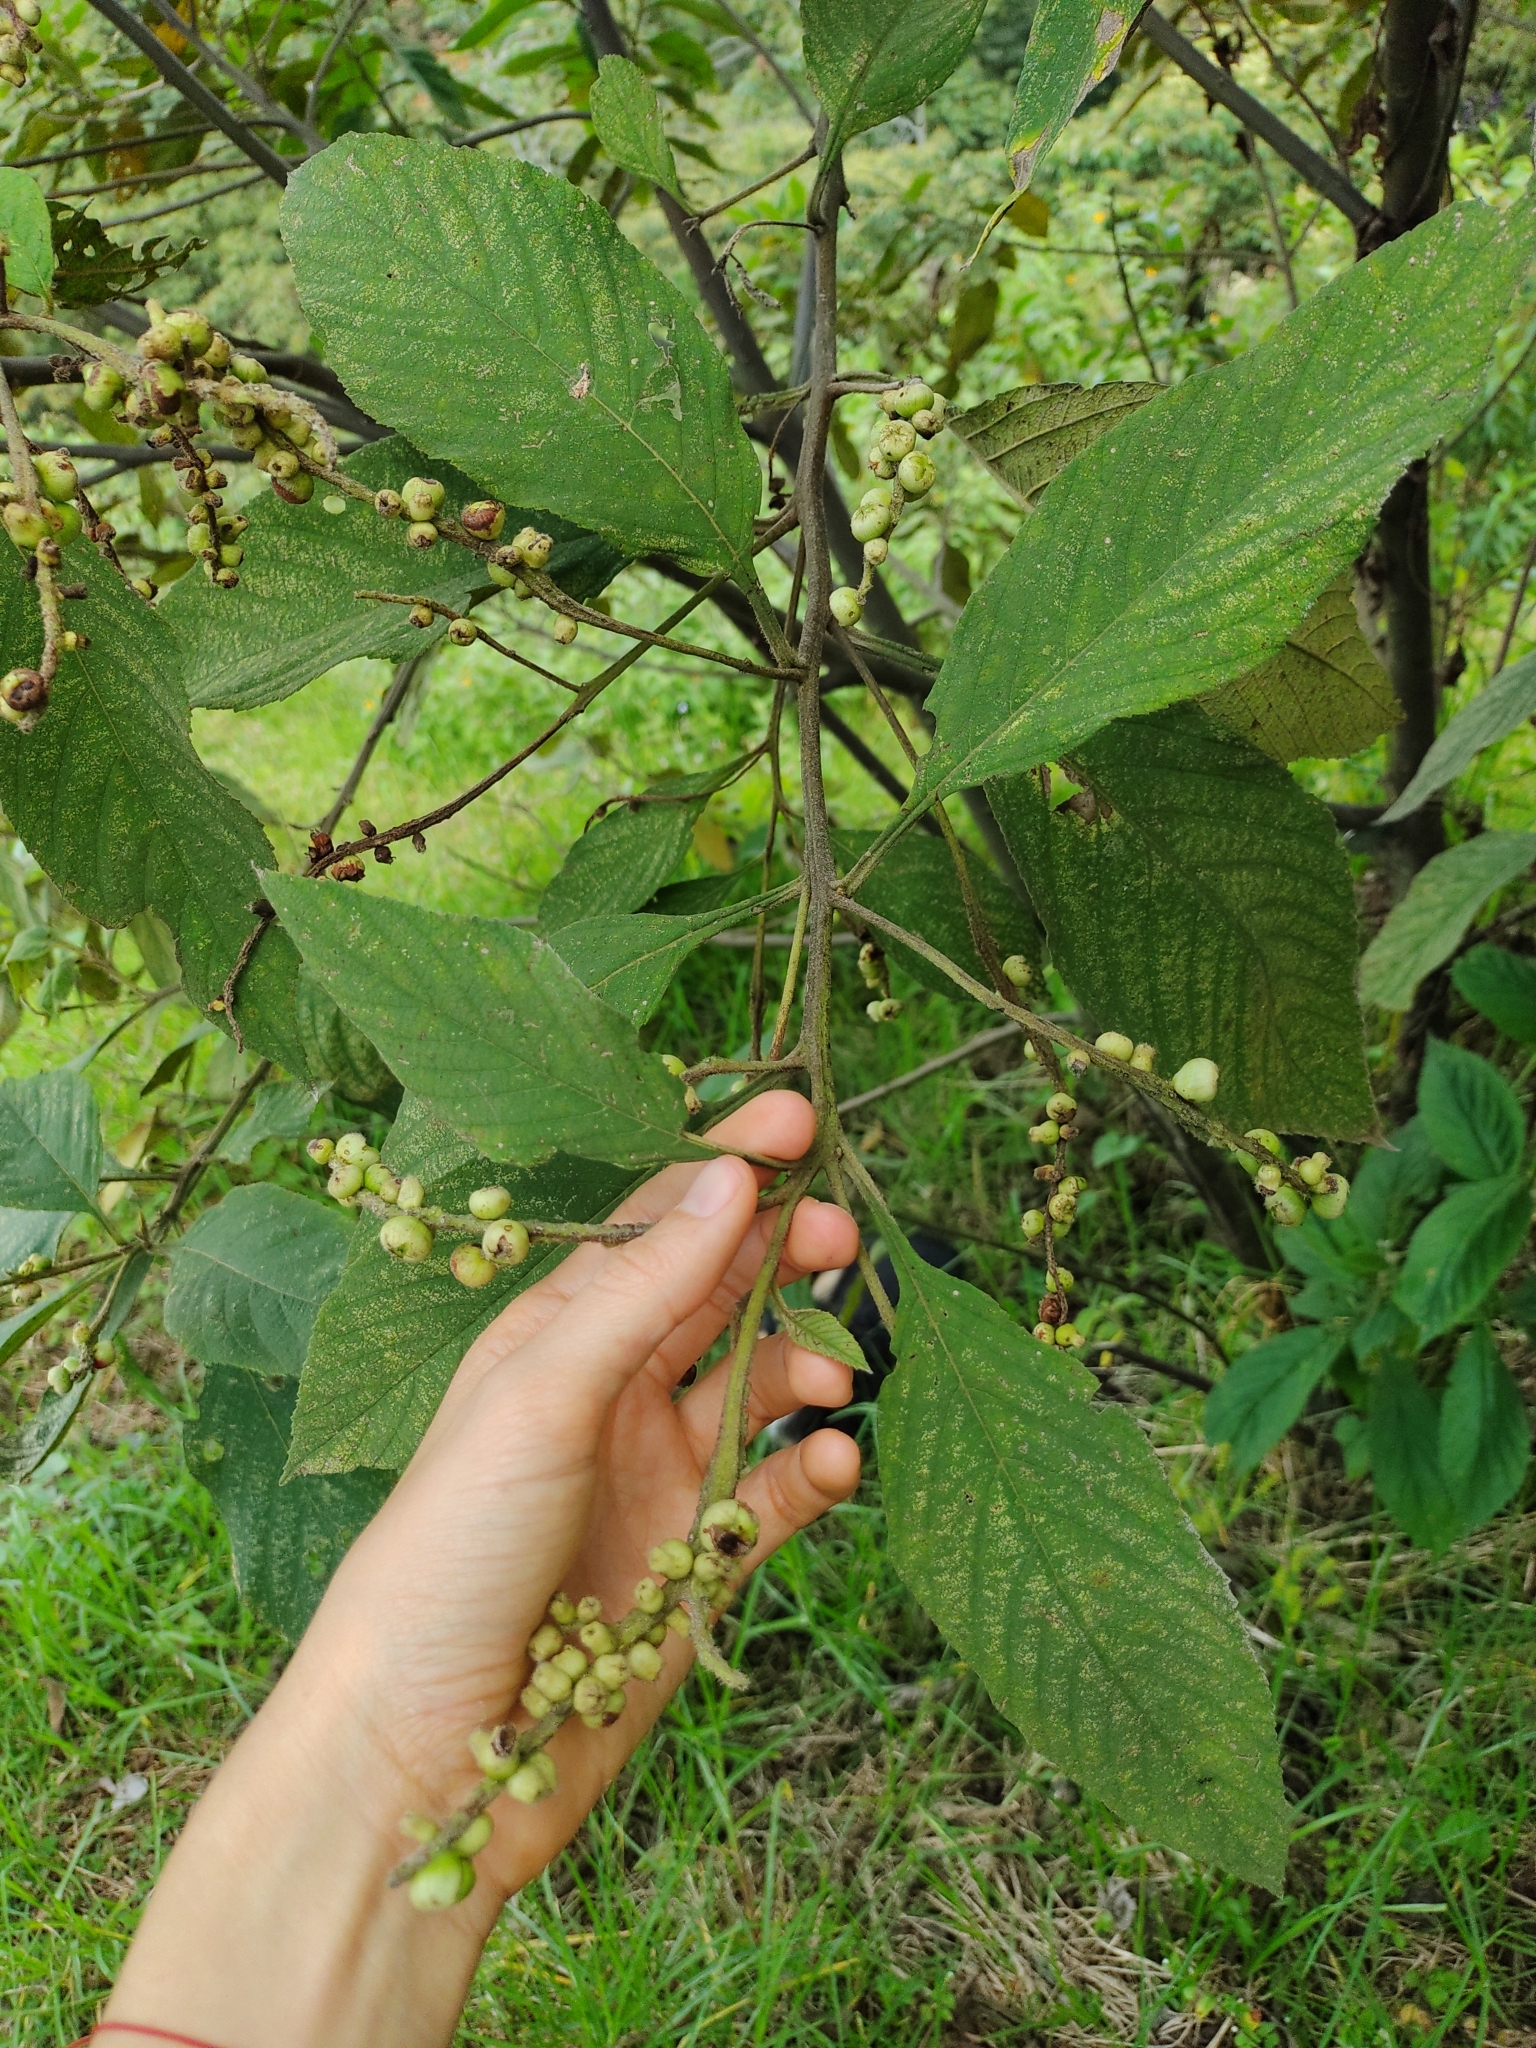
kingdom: Plantae
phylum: Tracheophyta
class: Magnoliopsida
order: Boraginales
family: Cordiaceae
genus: Varronia
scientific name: Varronia curassavica
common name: Black sage
